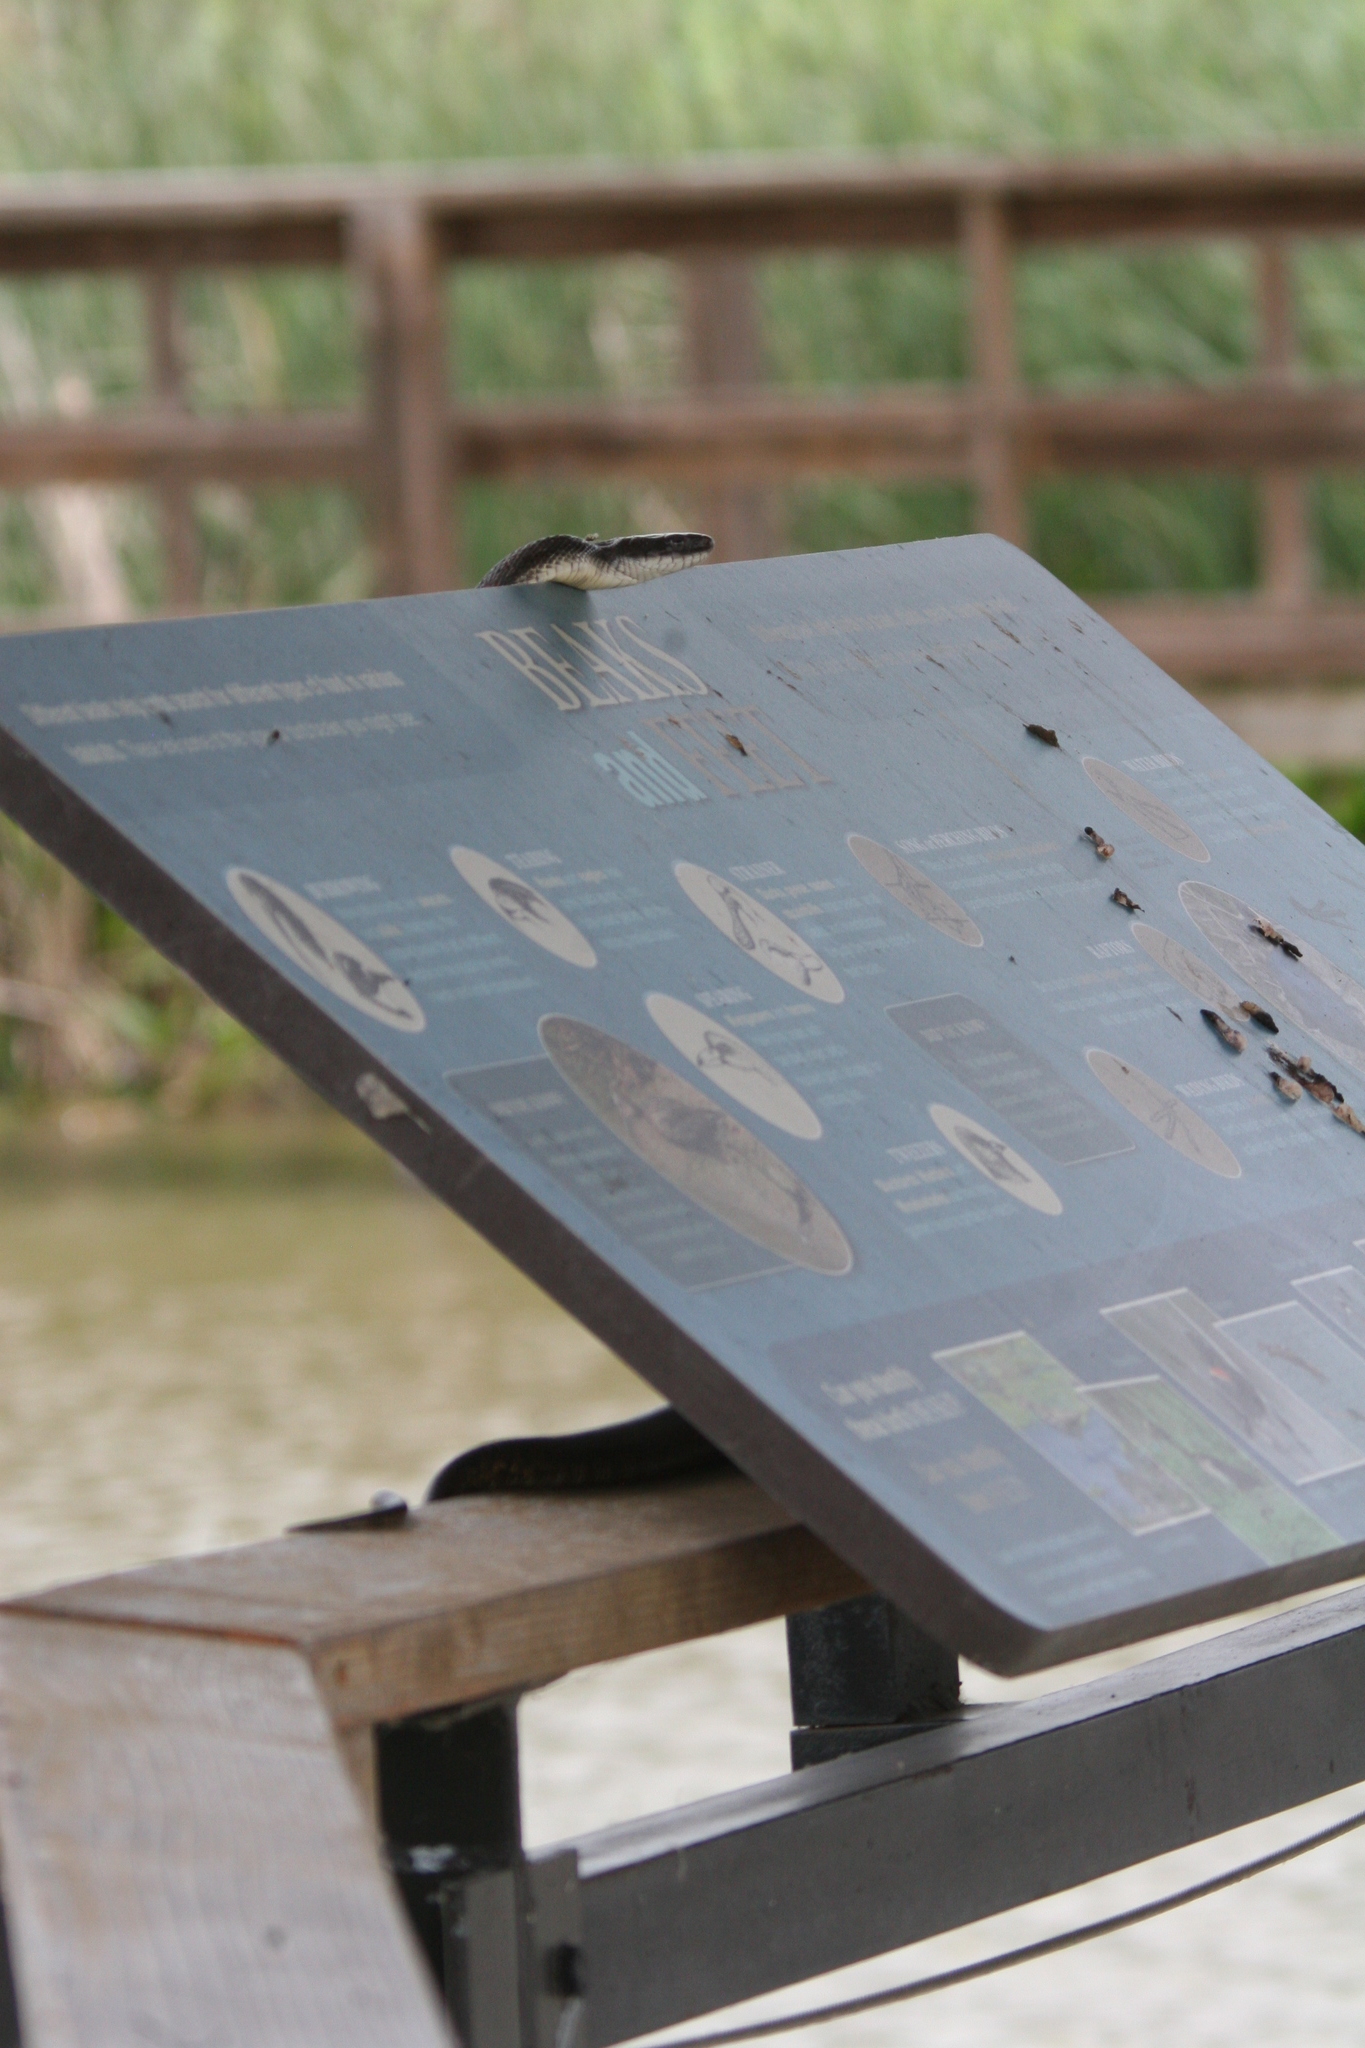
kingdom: Animalia
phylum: Chordata
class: Squamata
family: Colubridae
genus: Pantherophis
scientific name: Pantherophis obsoletus
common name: Black rat snake
